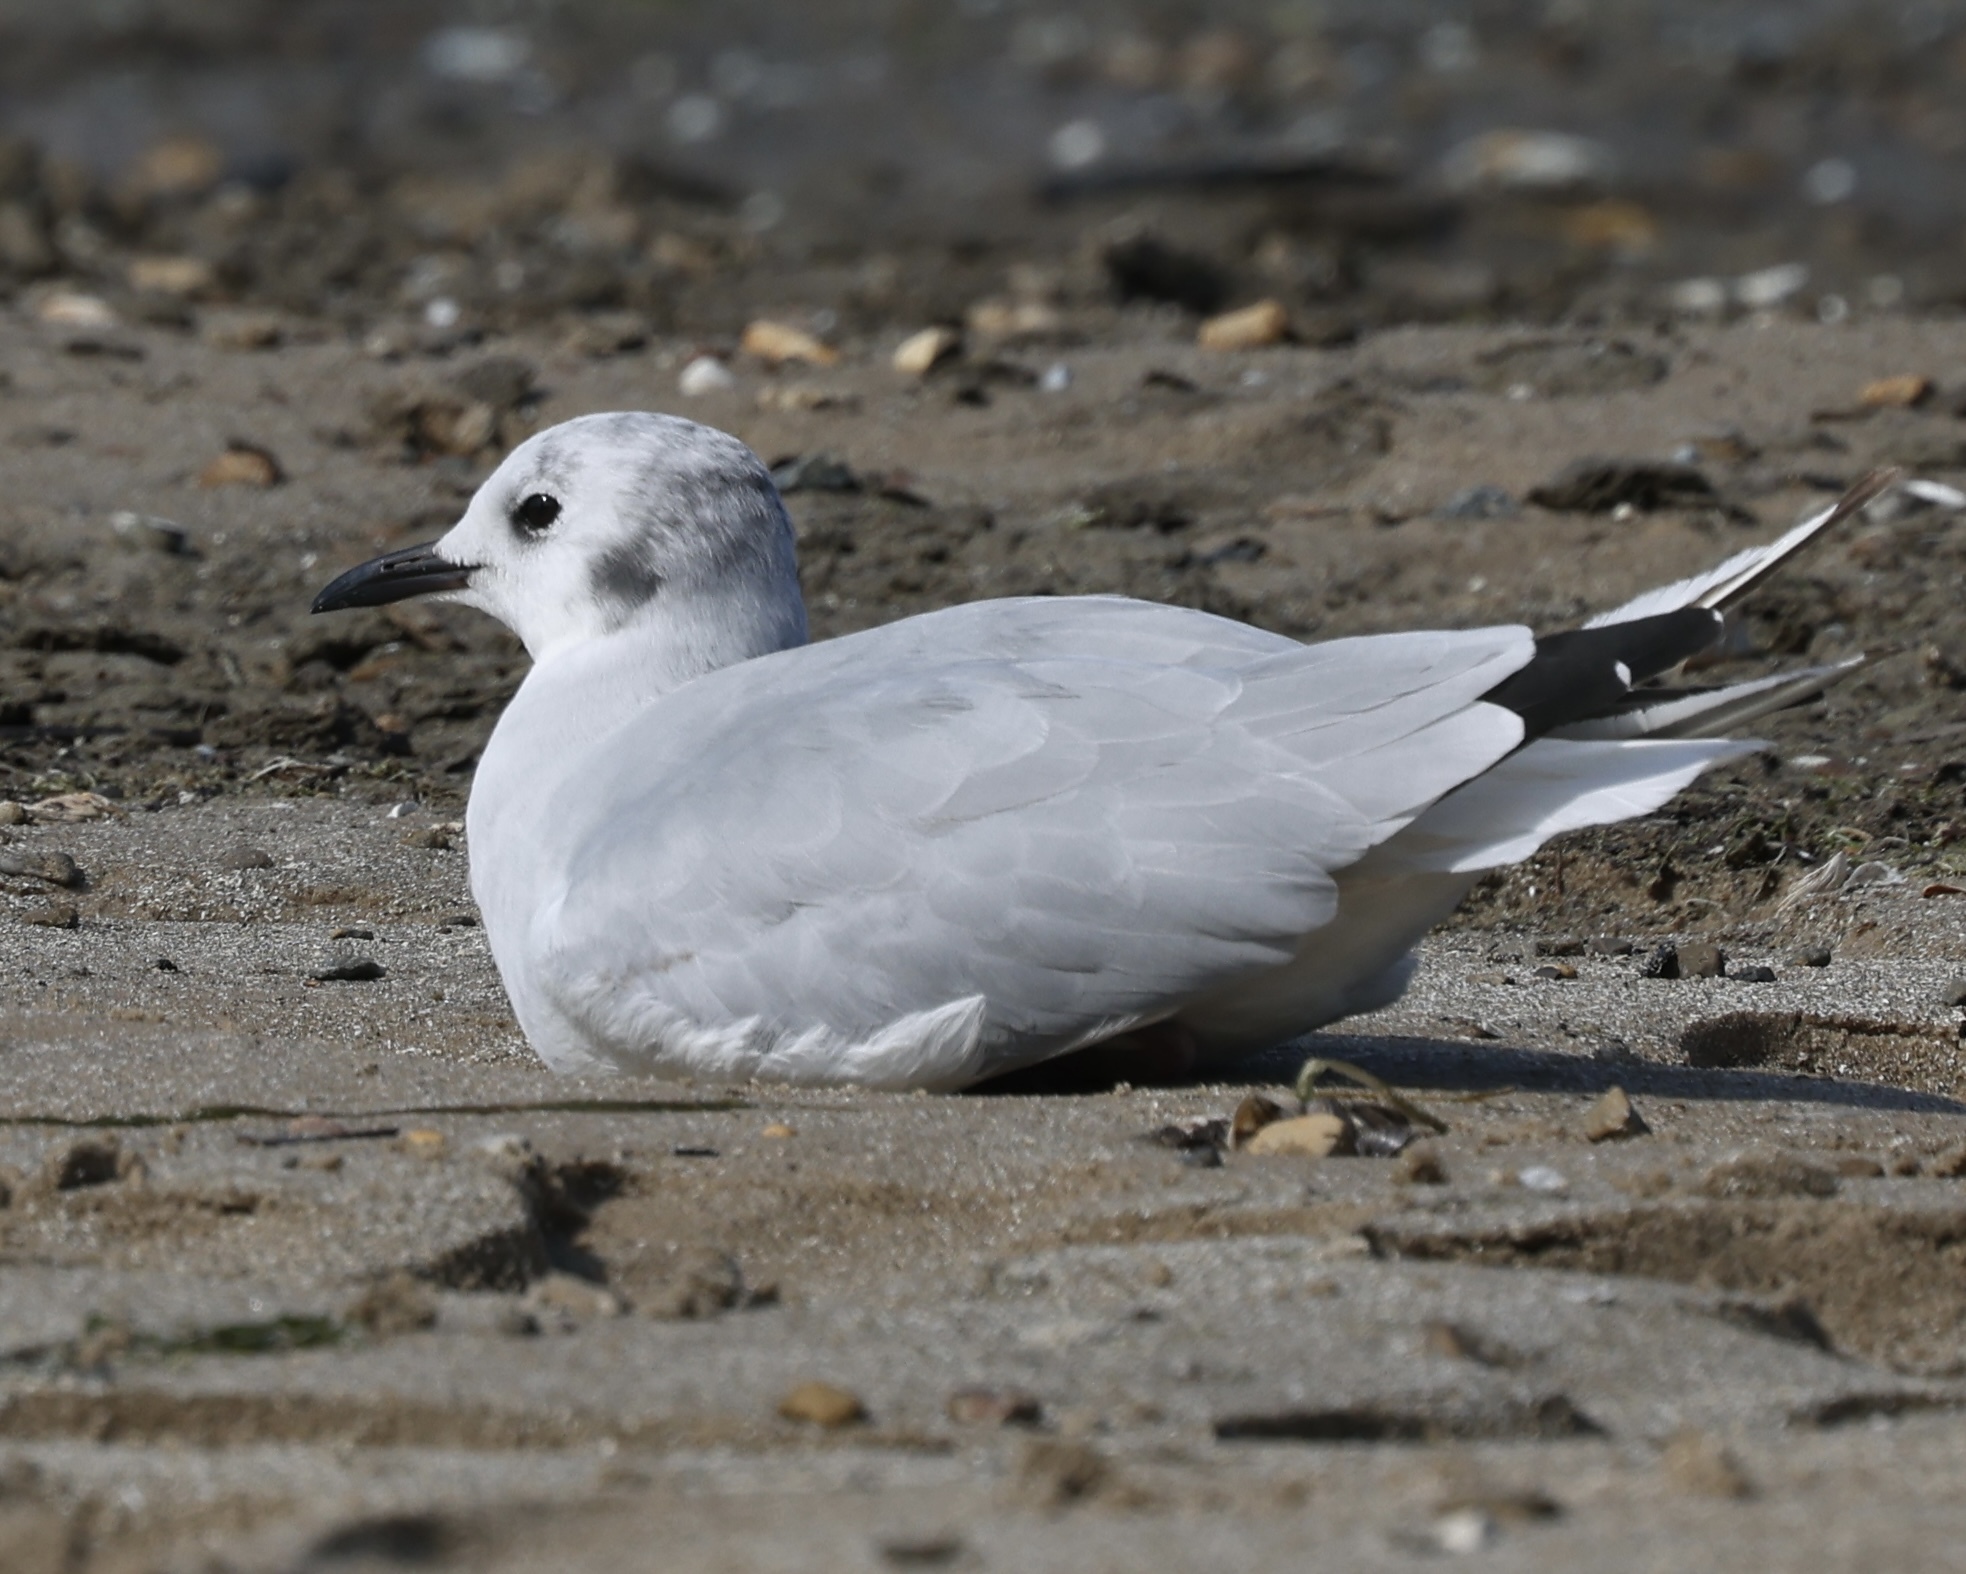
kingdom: Animalia
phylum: Chordata
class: Aves
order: Charadriiformes
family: Laridae
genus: Chroicocephalus
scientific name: Chroicocephalus philadelphia
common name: Bonaparte's gull
